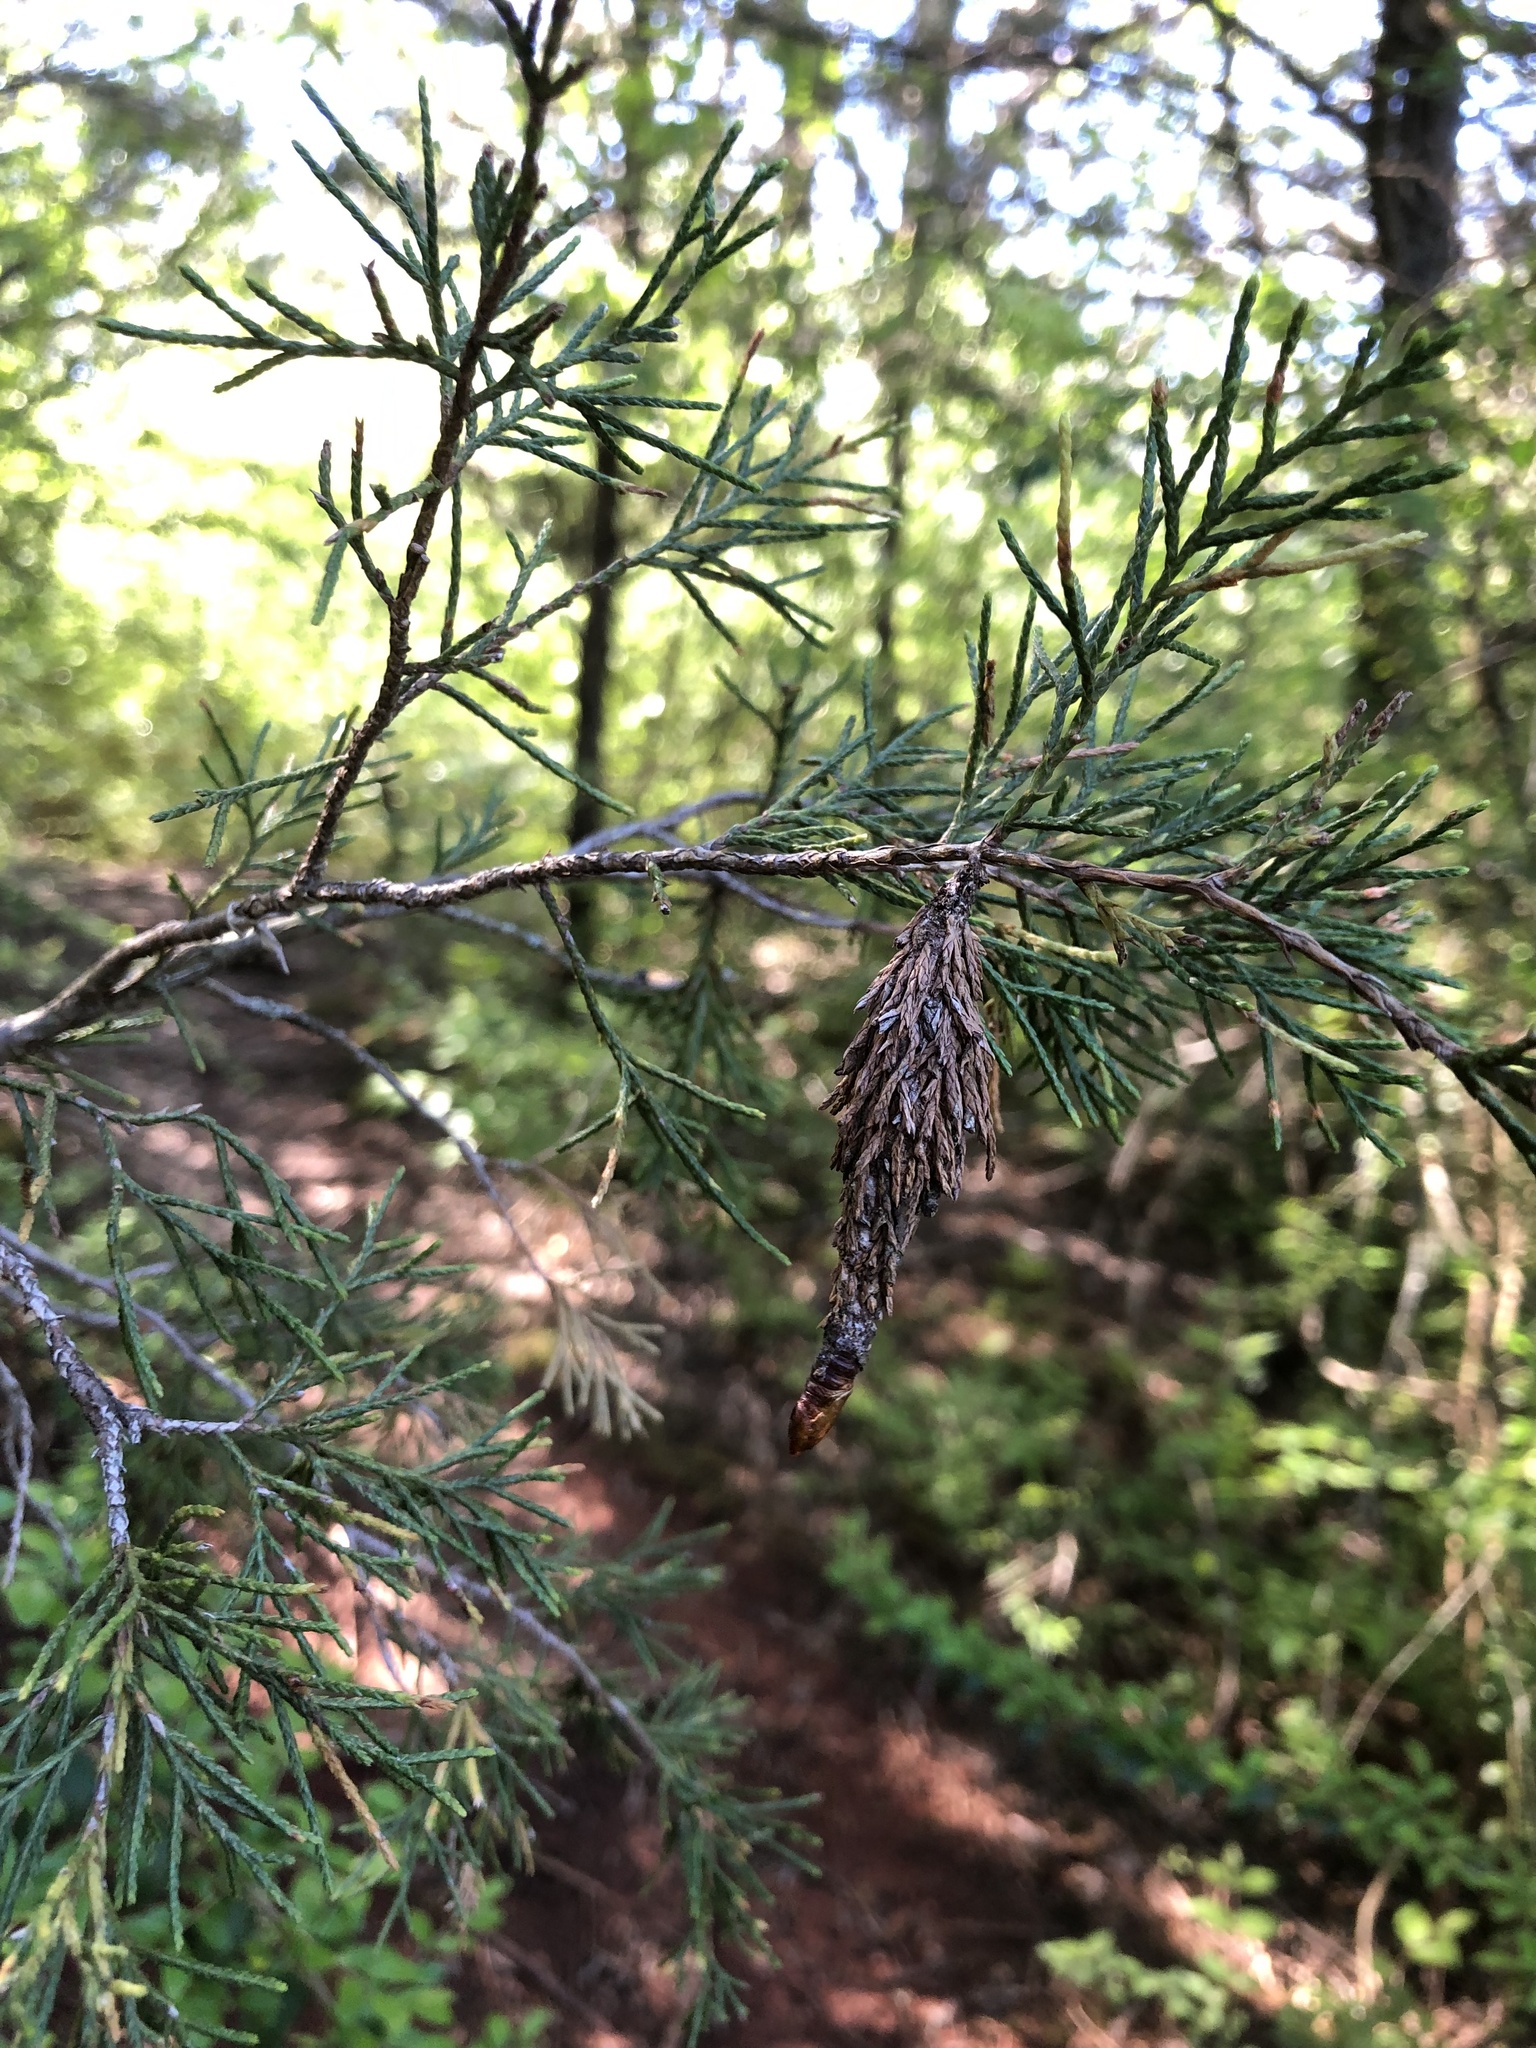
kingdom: Animalia
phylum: Arthropoda
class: Insecta
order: Lepidoptera
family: Psychidae
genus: Thyridopteryx
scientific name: Thyridopteryx ephemeraeformis
